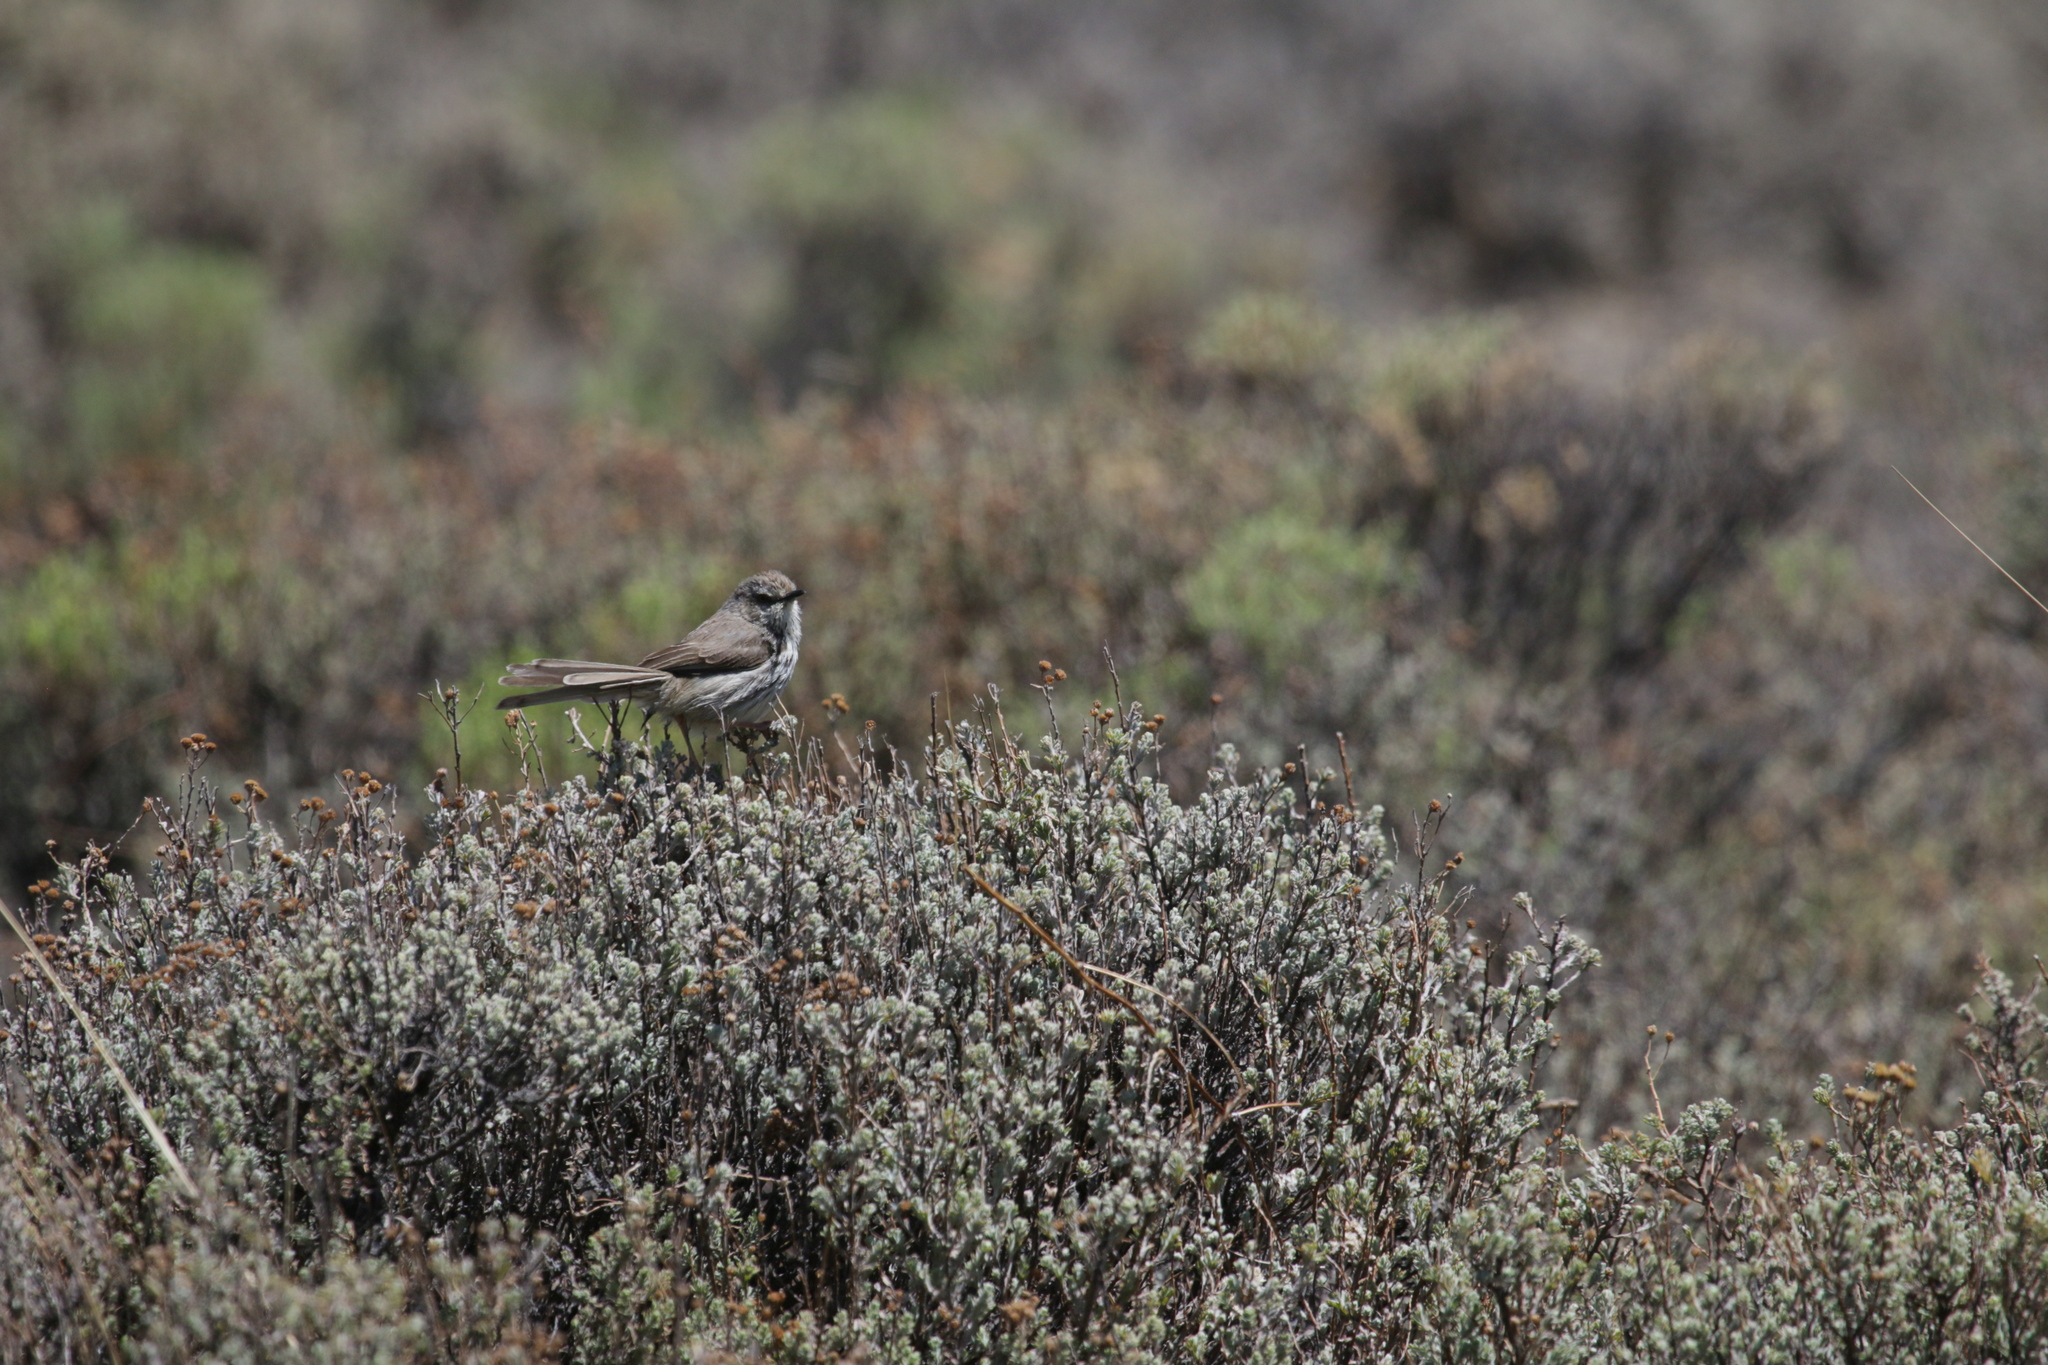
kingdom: Animalia
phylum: Chordata
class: Aves
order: Passeriformes
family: Cisticolidae
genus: Prinia
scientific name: Prinia maculosa
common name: Karoo prinia
